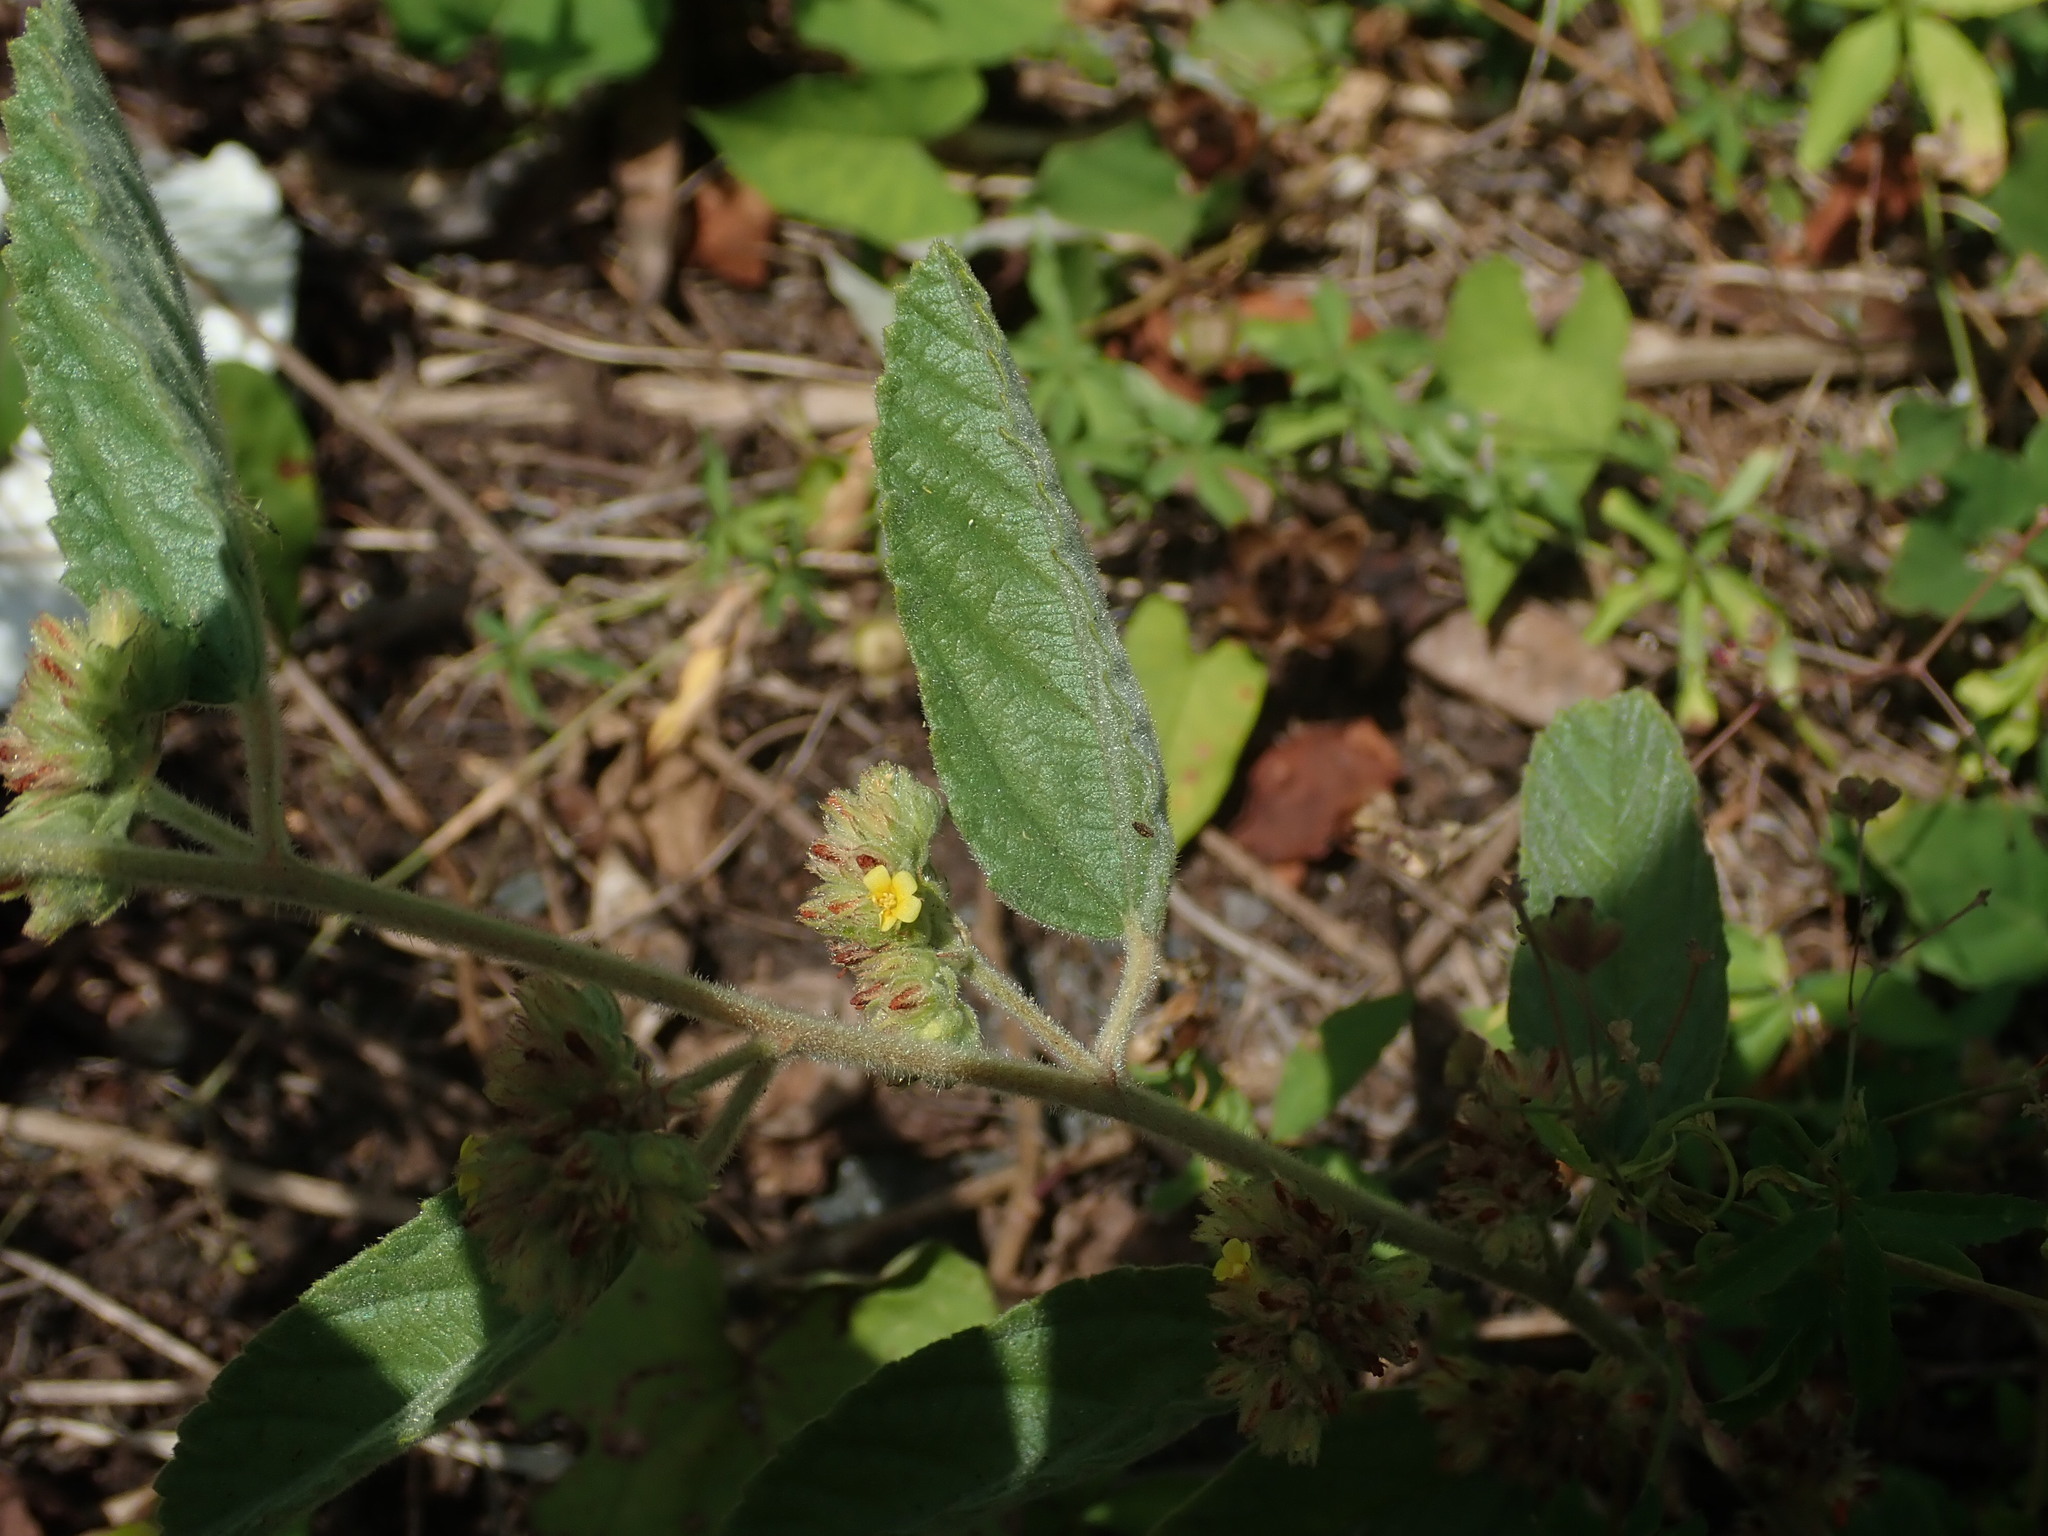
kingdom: Plantae
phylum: Tracheophyta
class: Magnoliopsida
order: Malvales
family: Malvaceae
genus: Waltheria
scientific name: Waltheria indica
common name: Leather-coat
